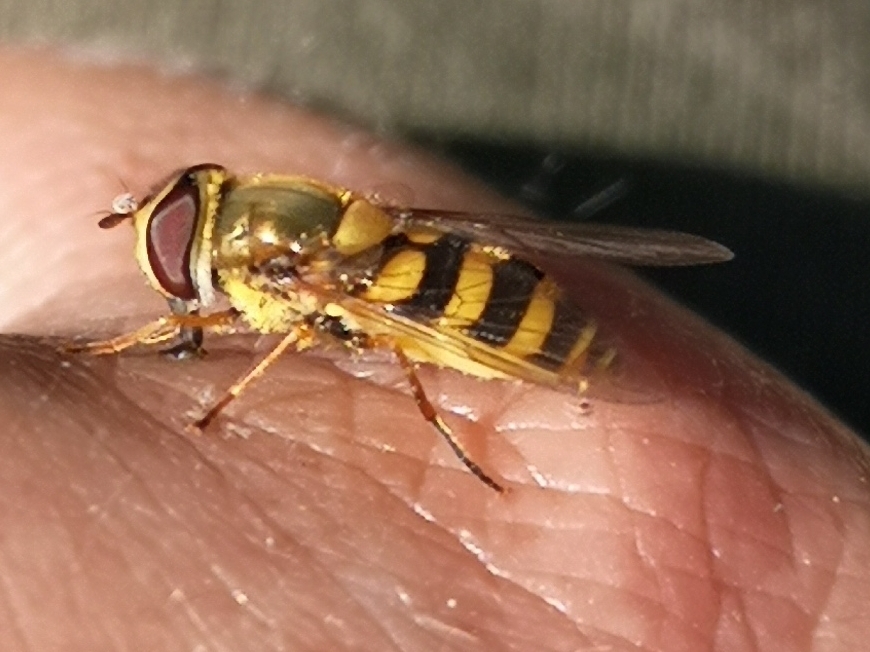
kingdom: Animalia
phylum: Arthropoda
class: Insecta
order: Diptera
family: Syrphidae
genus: Syrphus
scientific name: Syrphus
